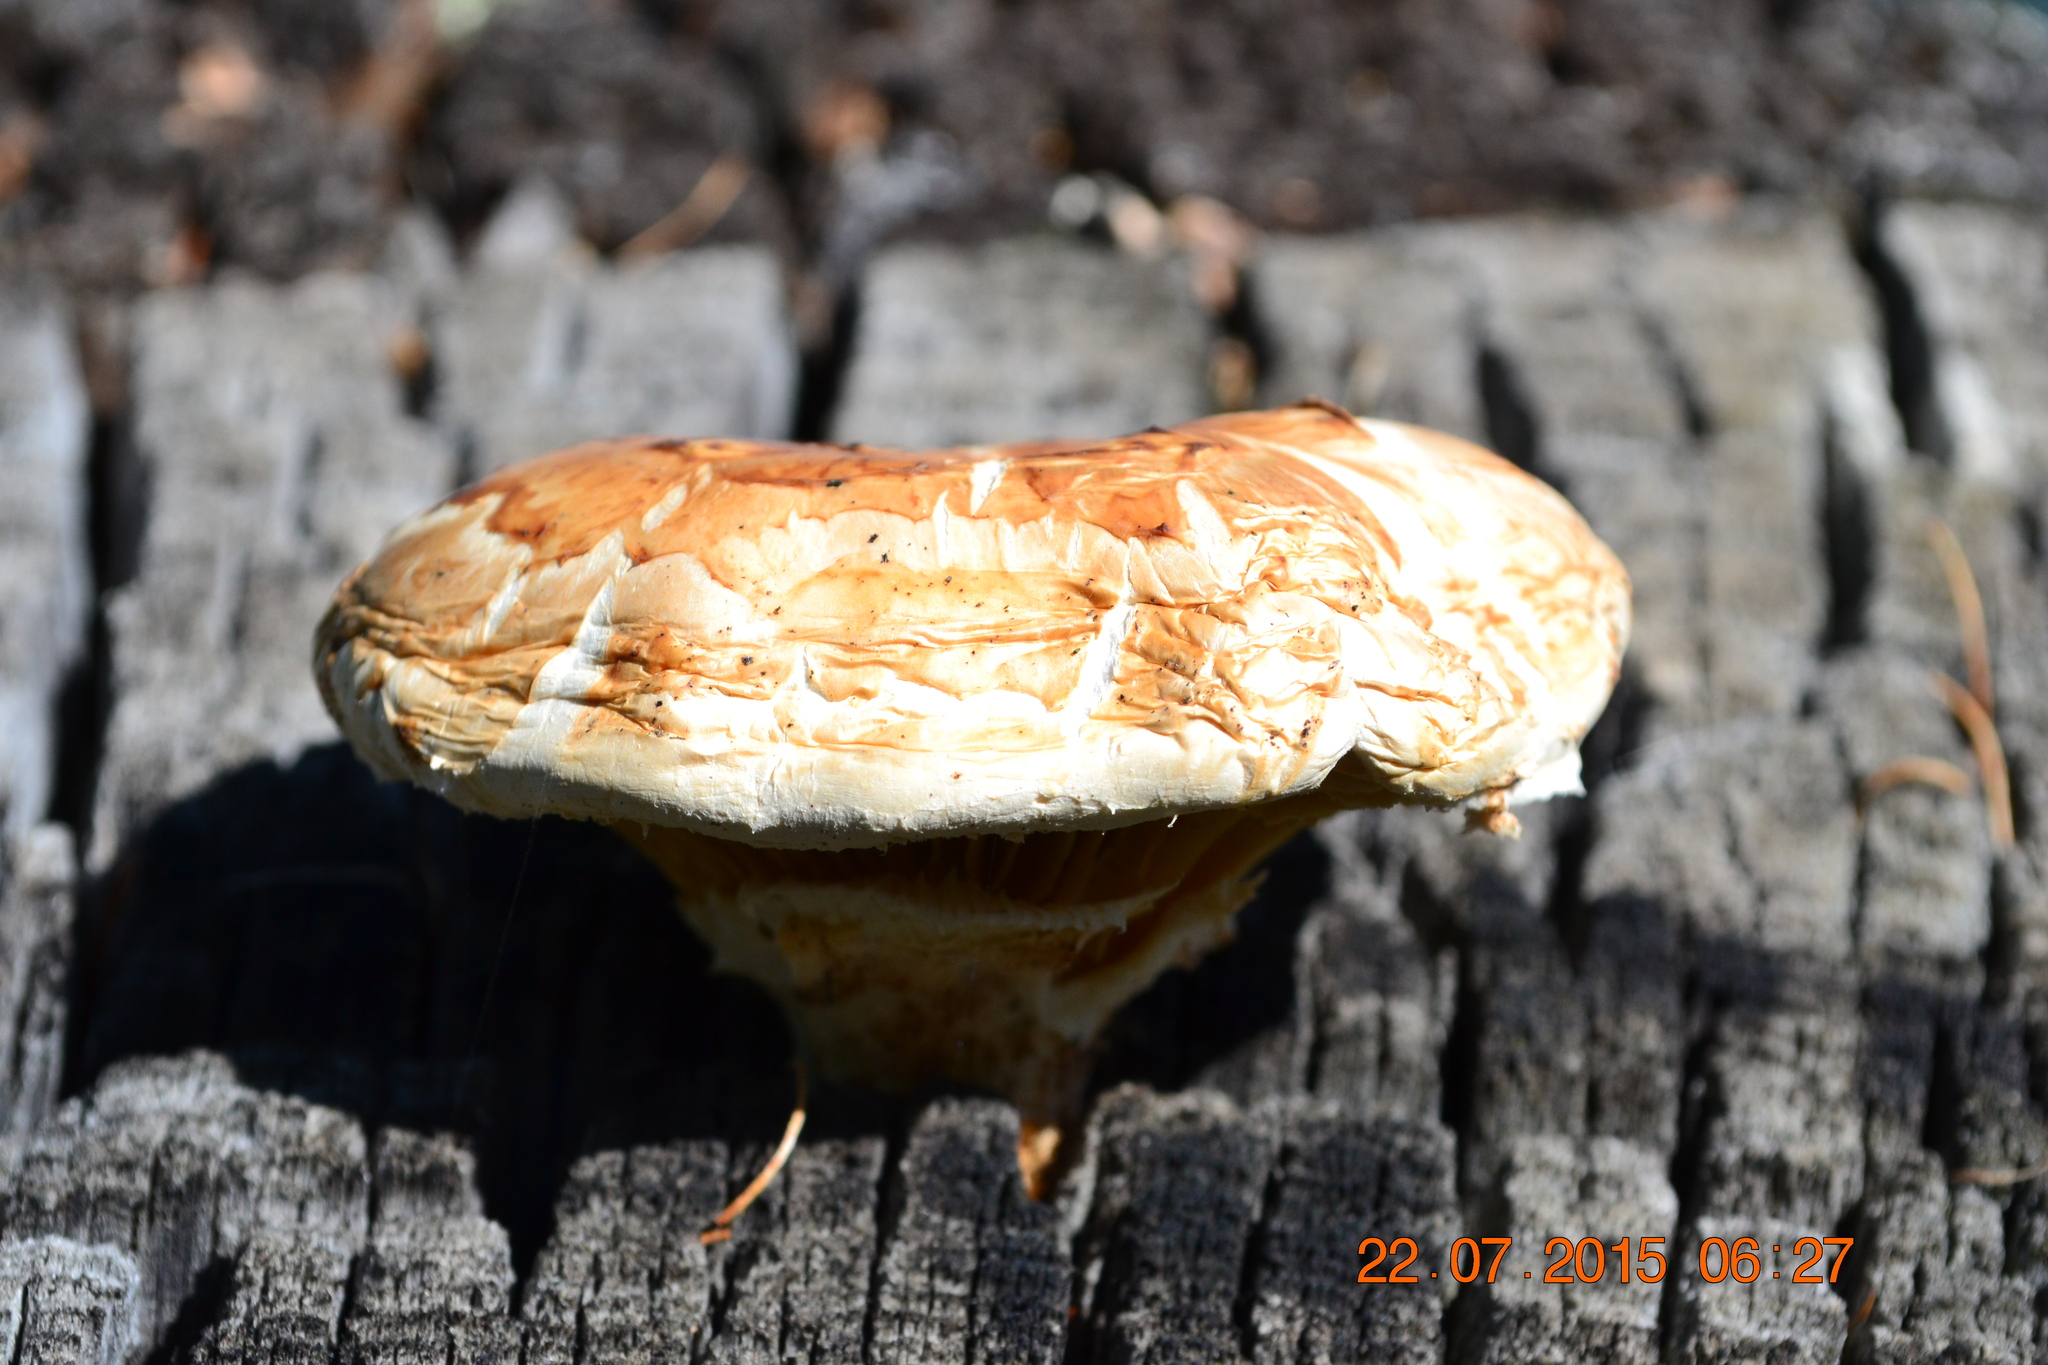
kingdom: Fungi
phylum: Basidiomycota
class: Agaricomycetes
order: Gloeophyllales
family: Gloeophyllaceae
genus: Neolentinus
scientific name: Neolentinus lepideus
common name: Scaly sawgill
